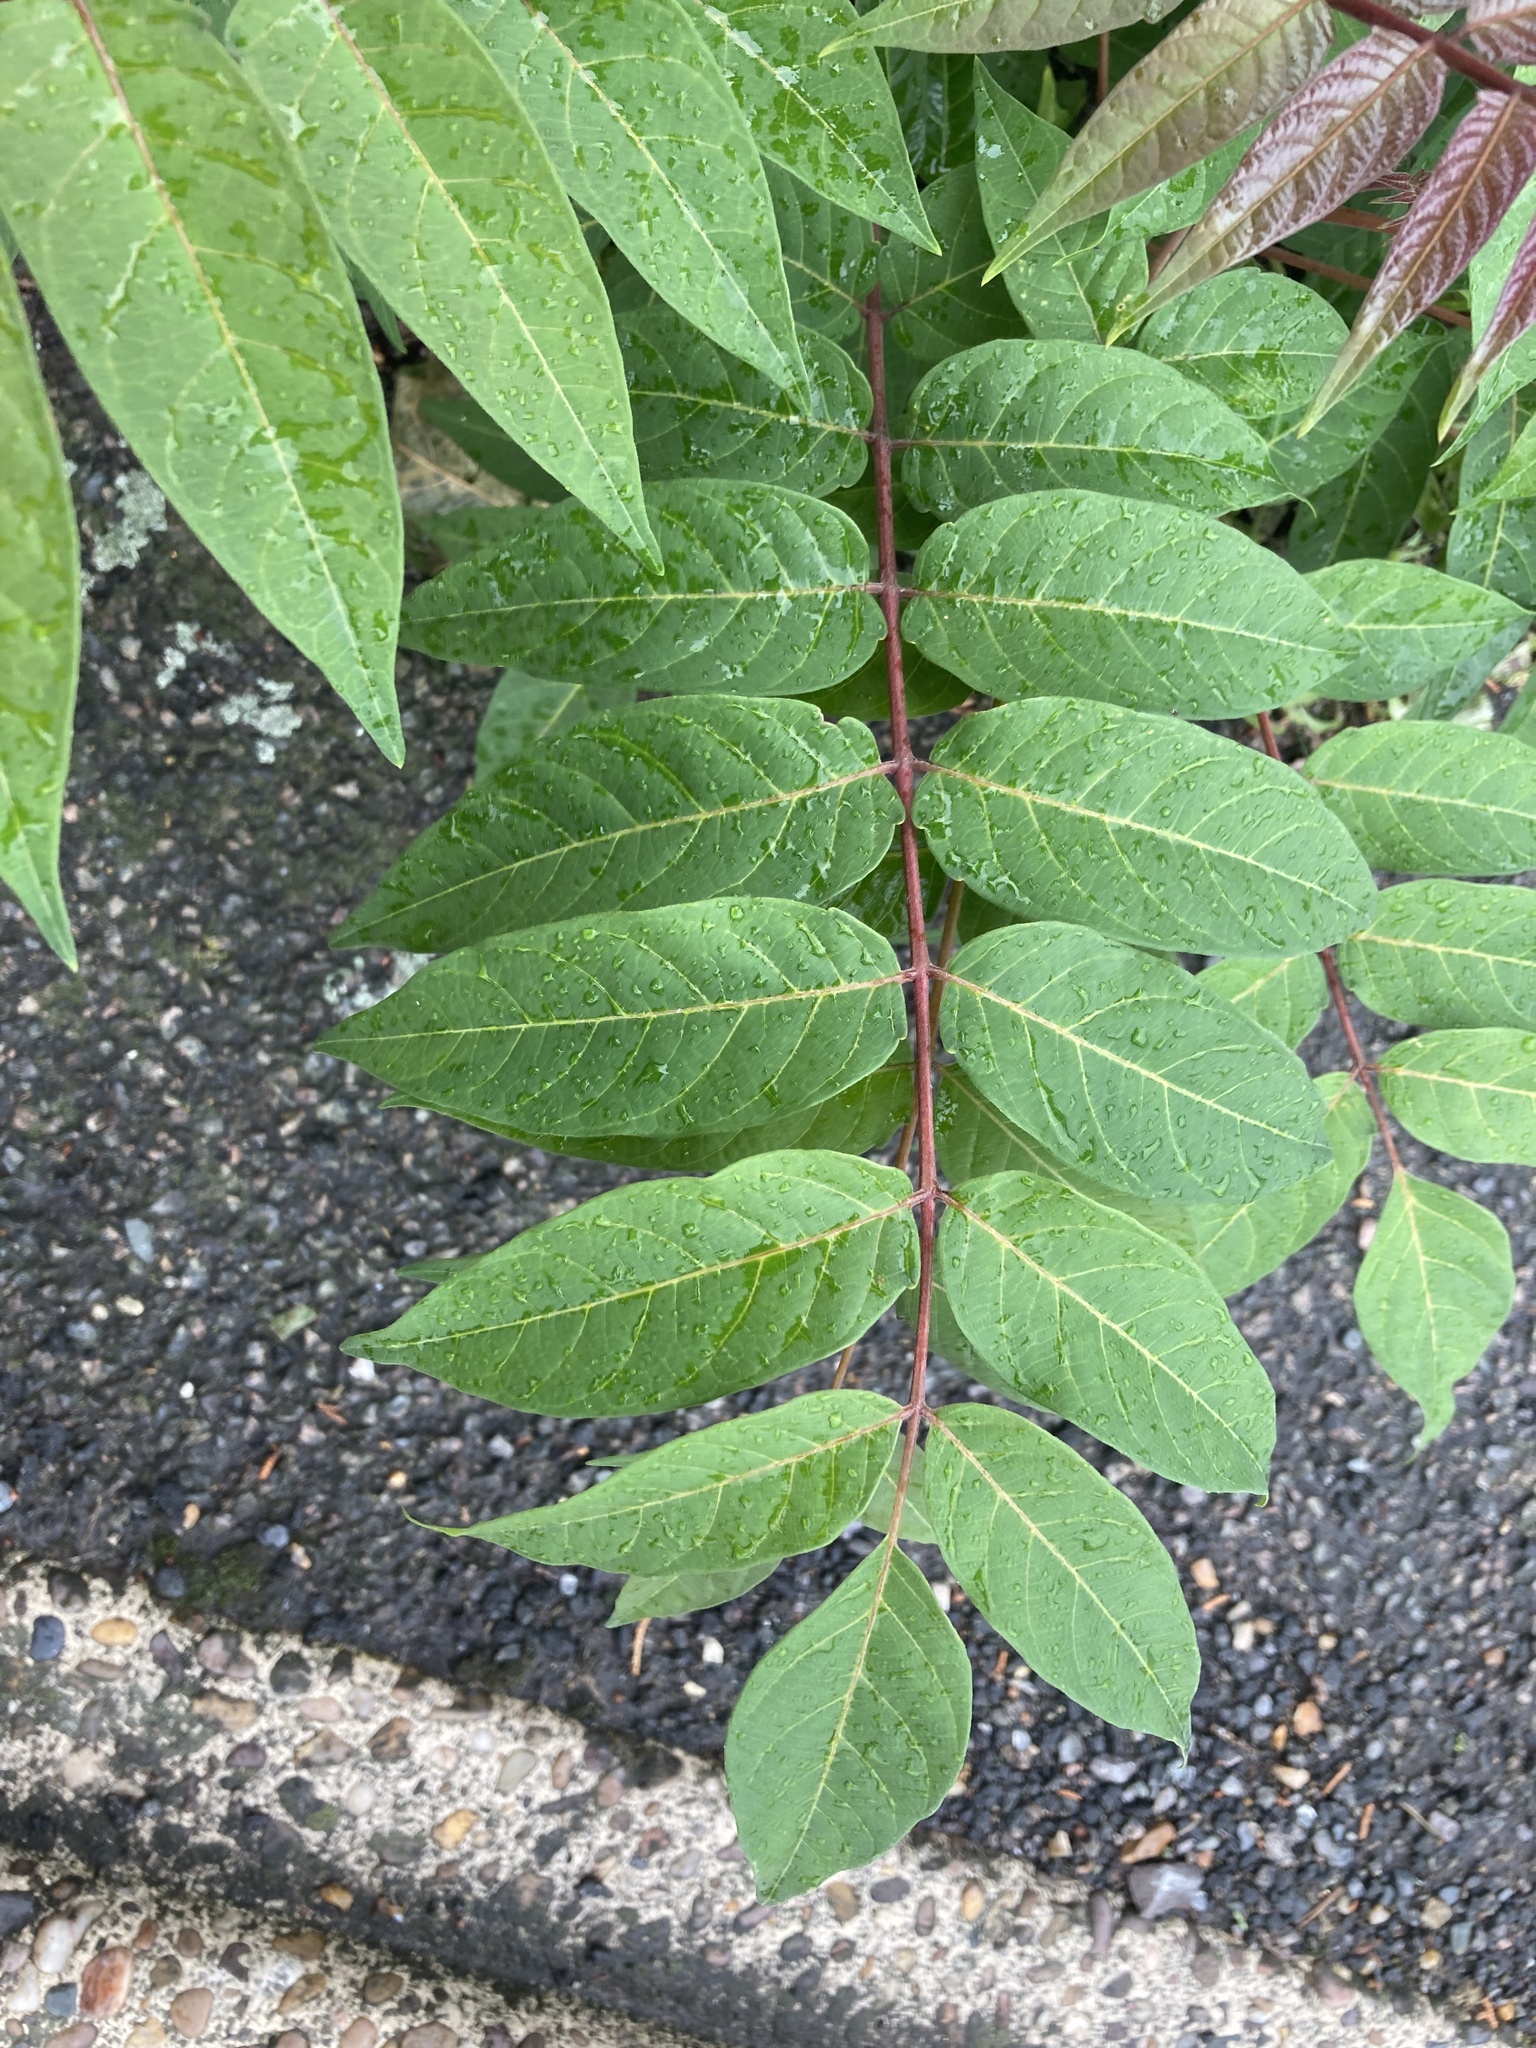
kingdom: Plantae
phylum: Tracheophyta
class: Magnoliopsida
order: Sapindales
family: Simaroubaceae
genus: Ailanthus
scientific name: Ailanthus altissima
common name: Tree-of-heaven
